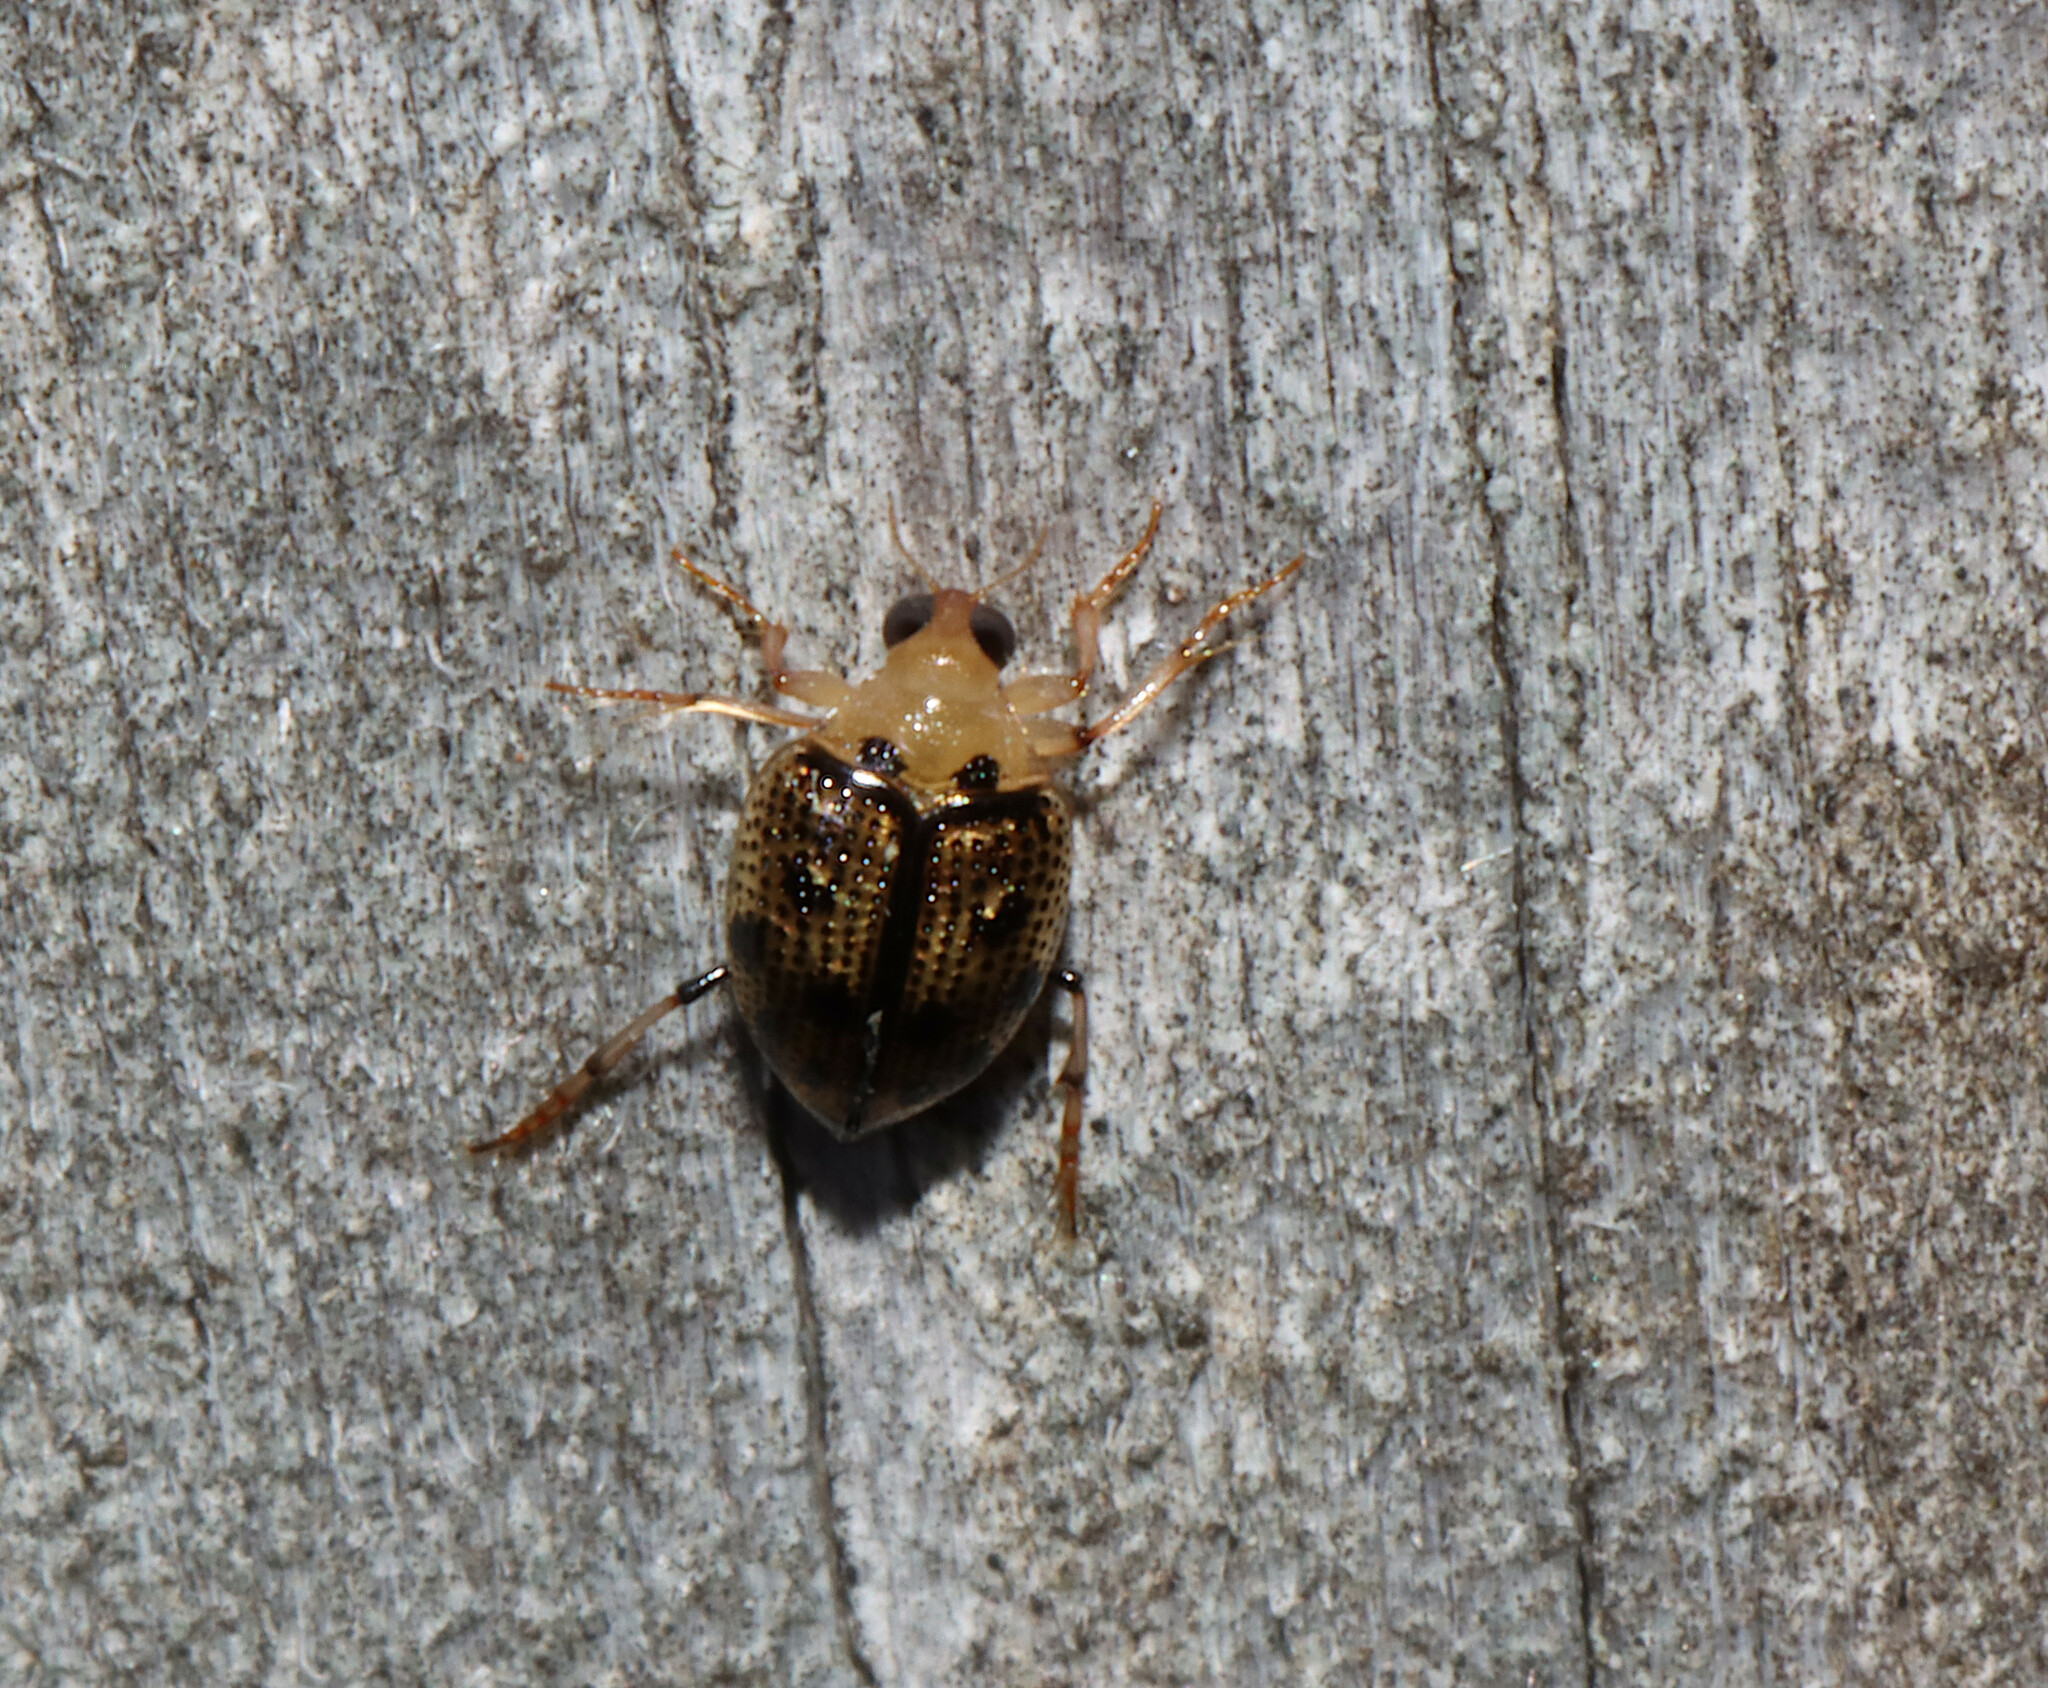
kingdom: Animalia
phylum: Arthropoda
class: Insecta
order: Coleoptera
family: Haliplidae
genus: Peltodytes
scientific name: Peltodytes
